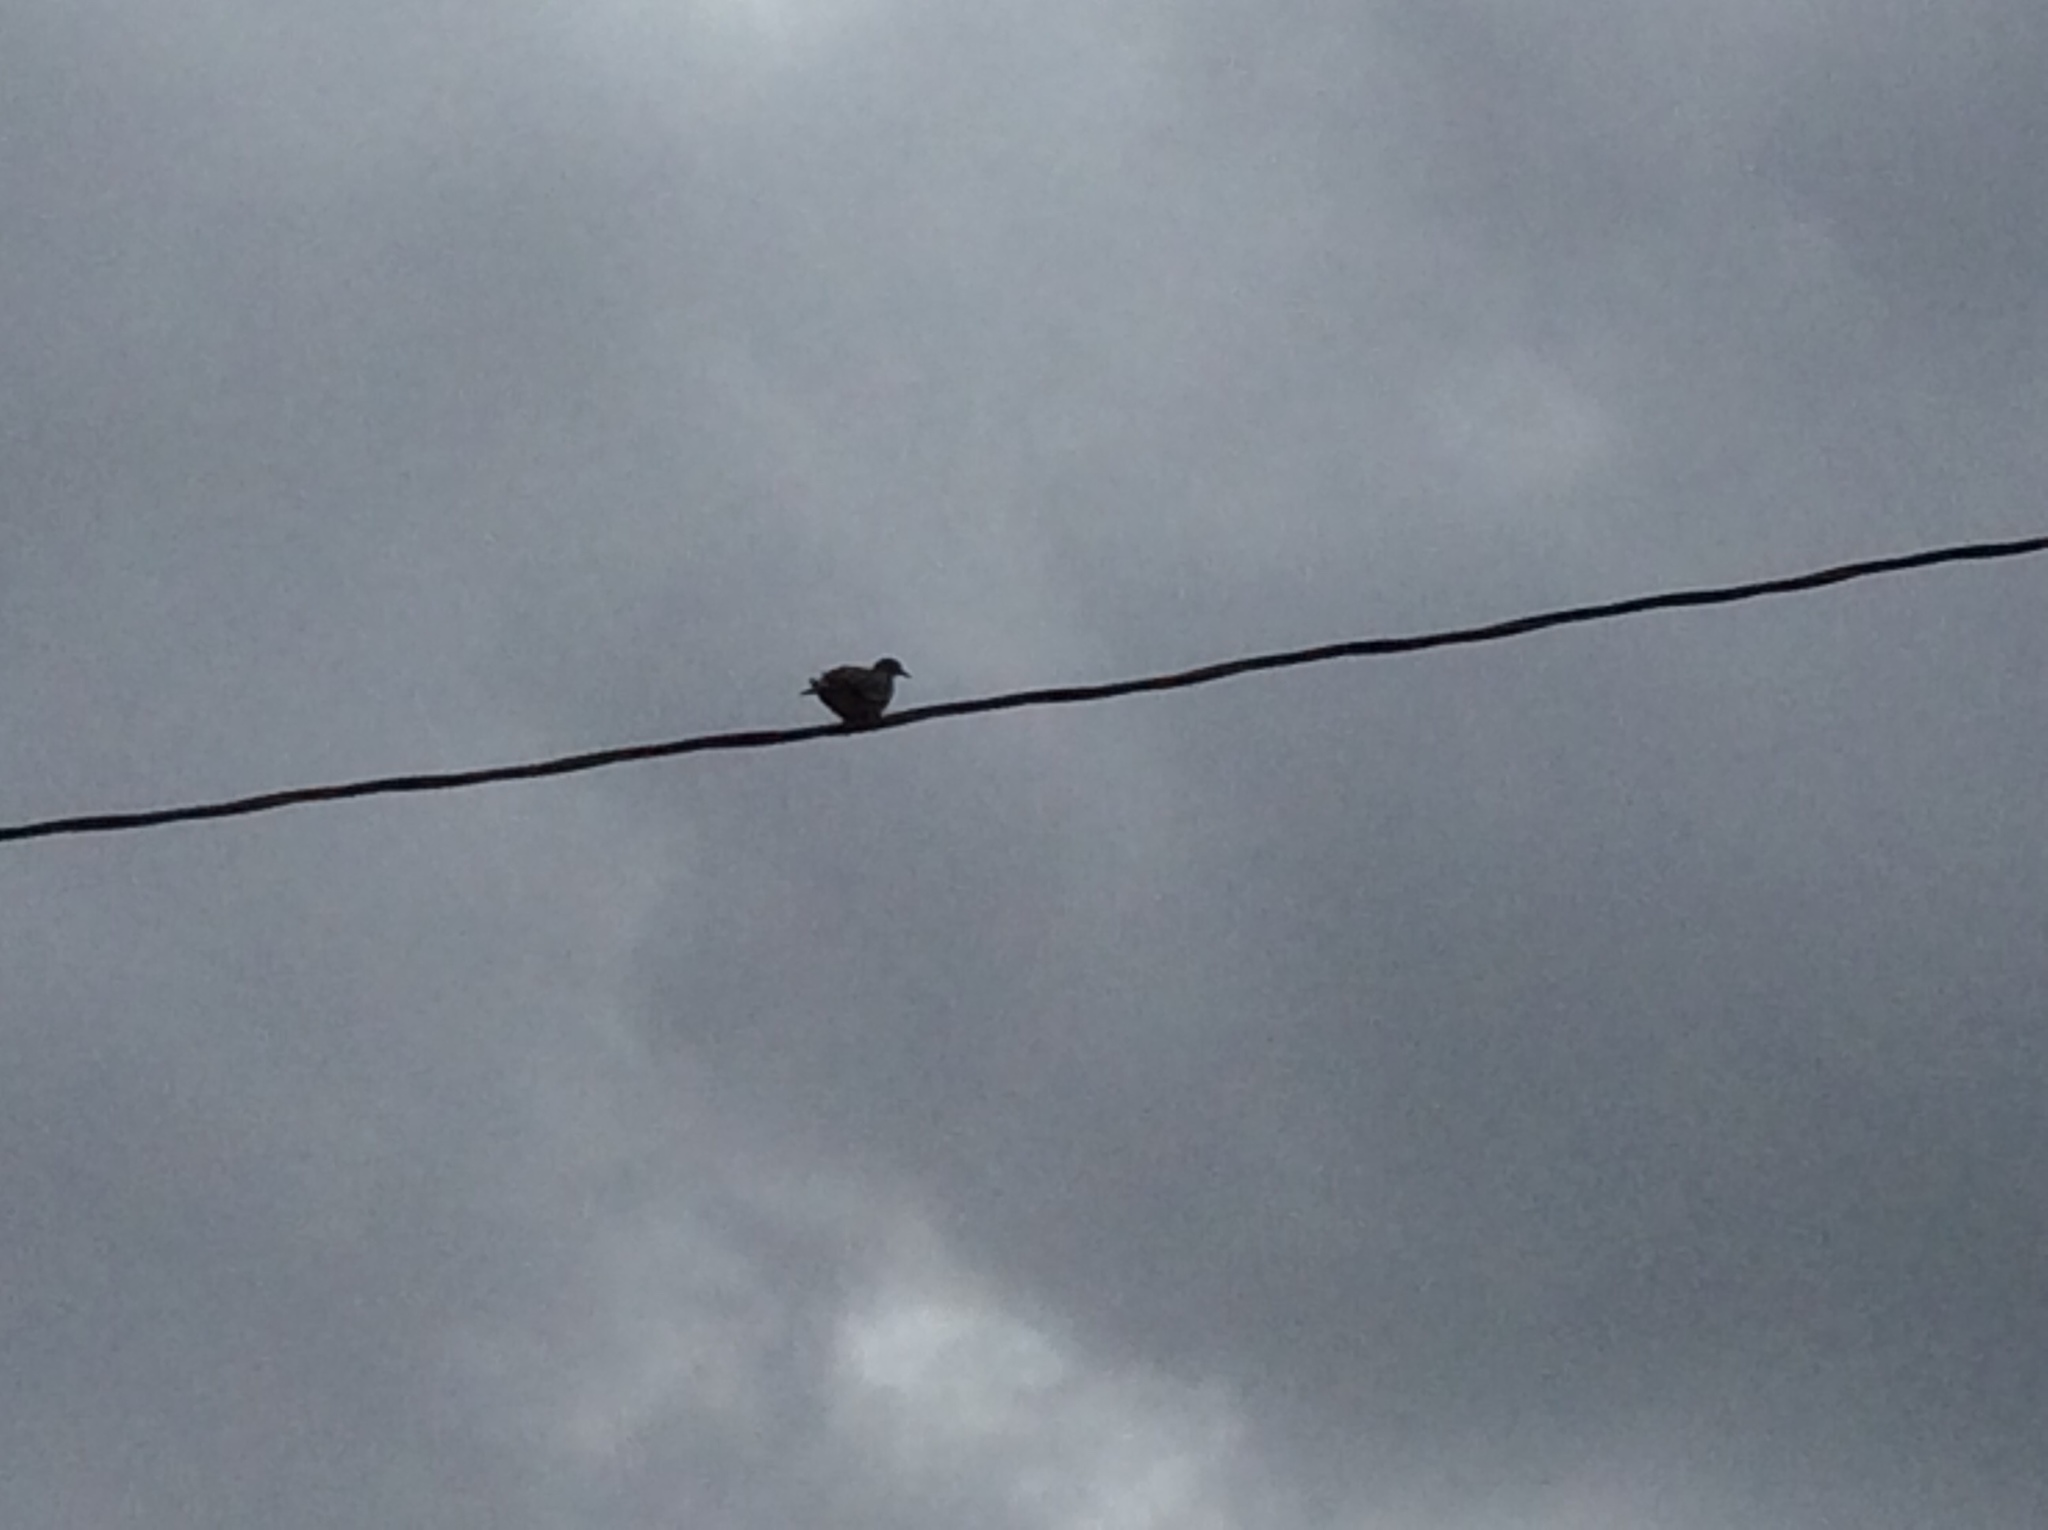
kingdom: Animalia
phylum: Chordata
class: Aves
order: Columbiformes
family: Columbidae
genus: Zenaida
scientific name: Zenaida asiatica
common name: White-winged dove
